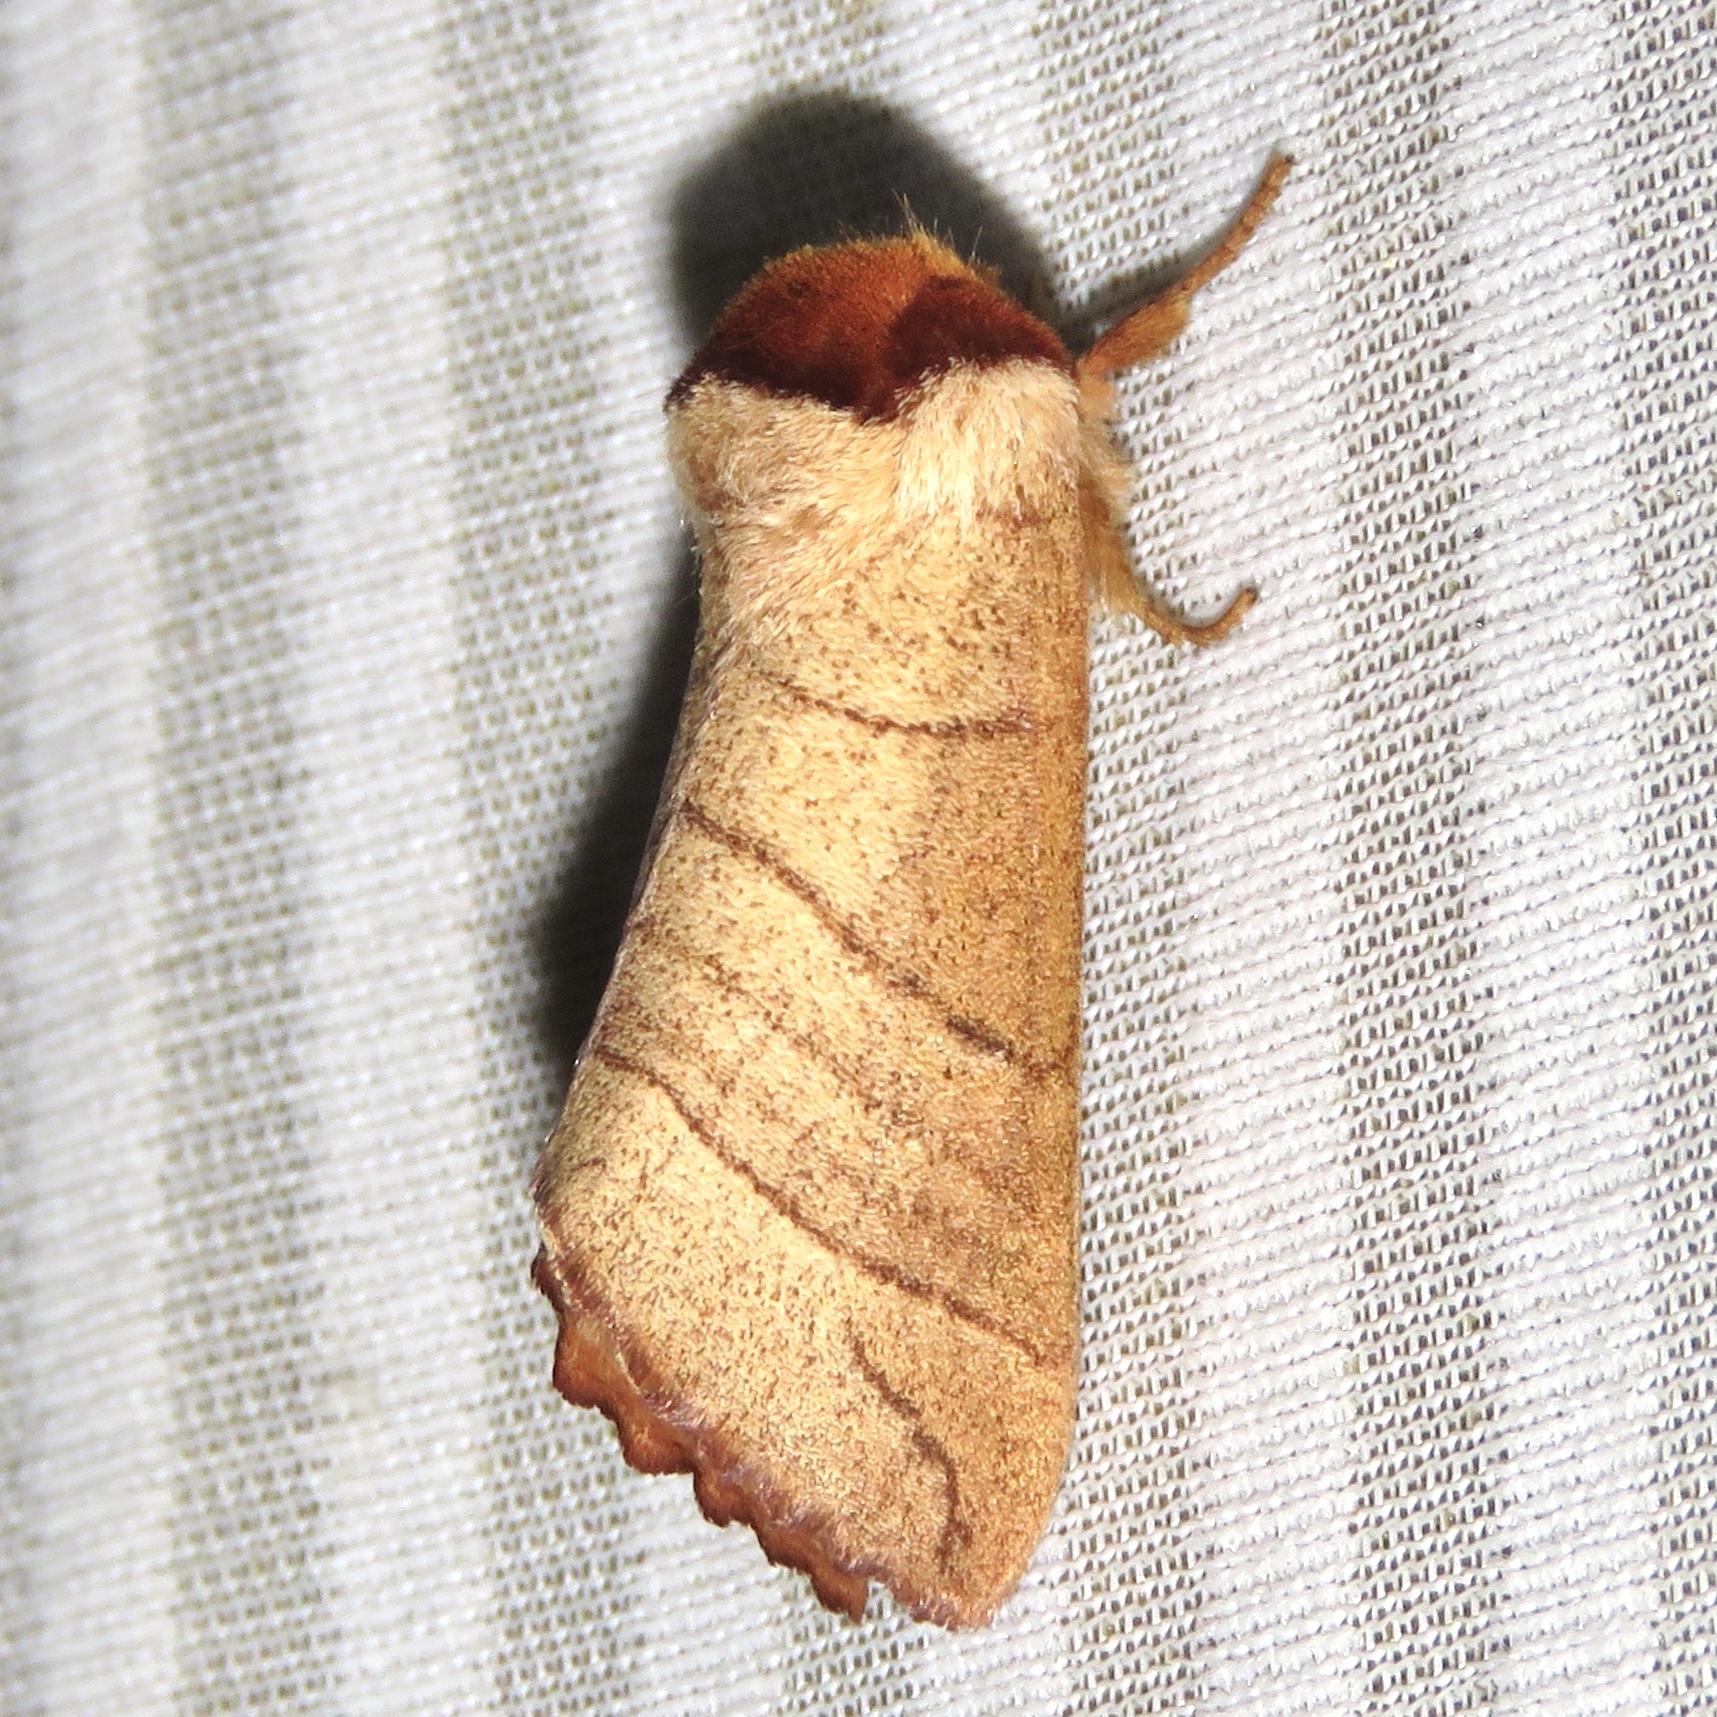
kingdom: Animalia
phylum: Arthropoda
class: Insecta
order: Lepidoptera
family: Notodontidae
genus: Datana
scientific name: Datana ministra
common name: Yellow-necked caterpillar moth
